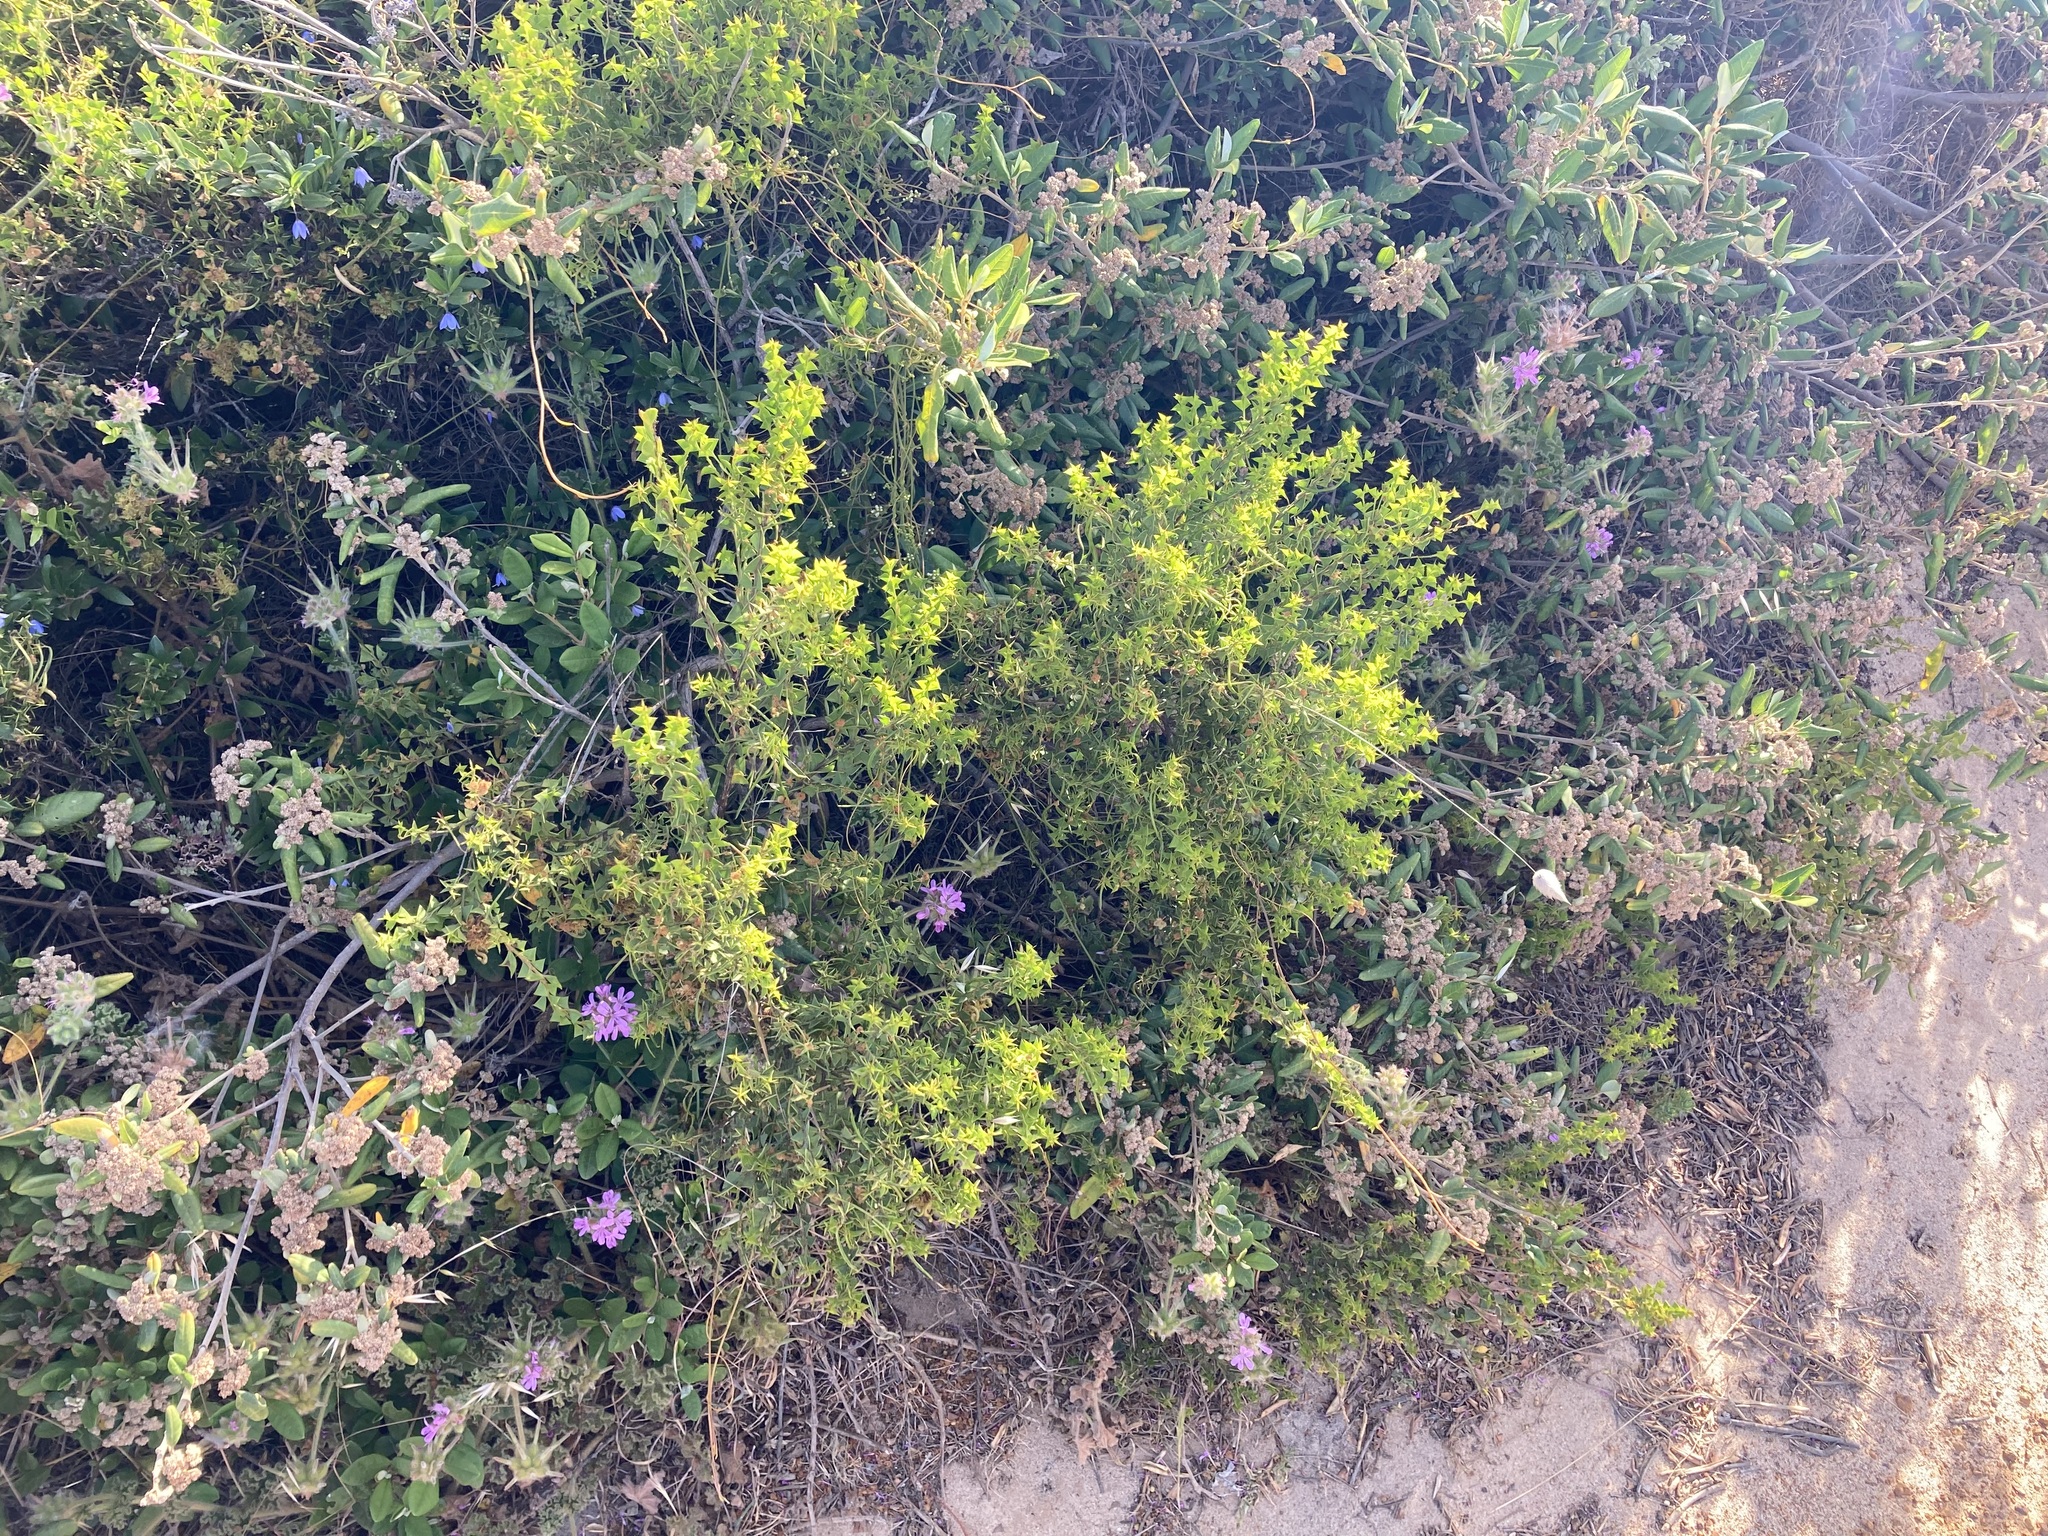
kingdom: Plantae
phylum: Tracheophyta
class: Magnoliopsida
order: Fabales
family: Fabaceae
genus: Acacia
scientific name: Acacia trapezoidea
